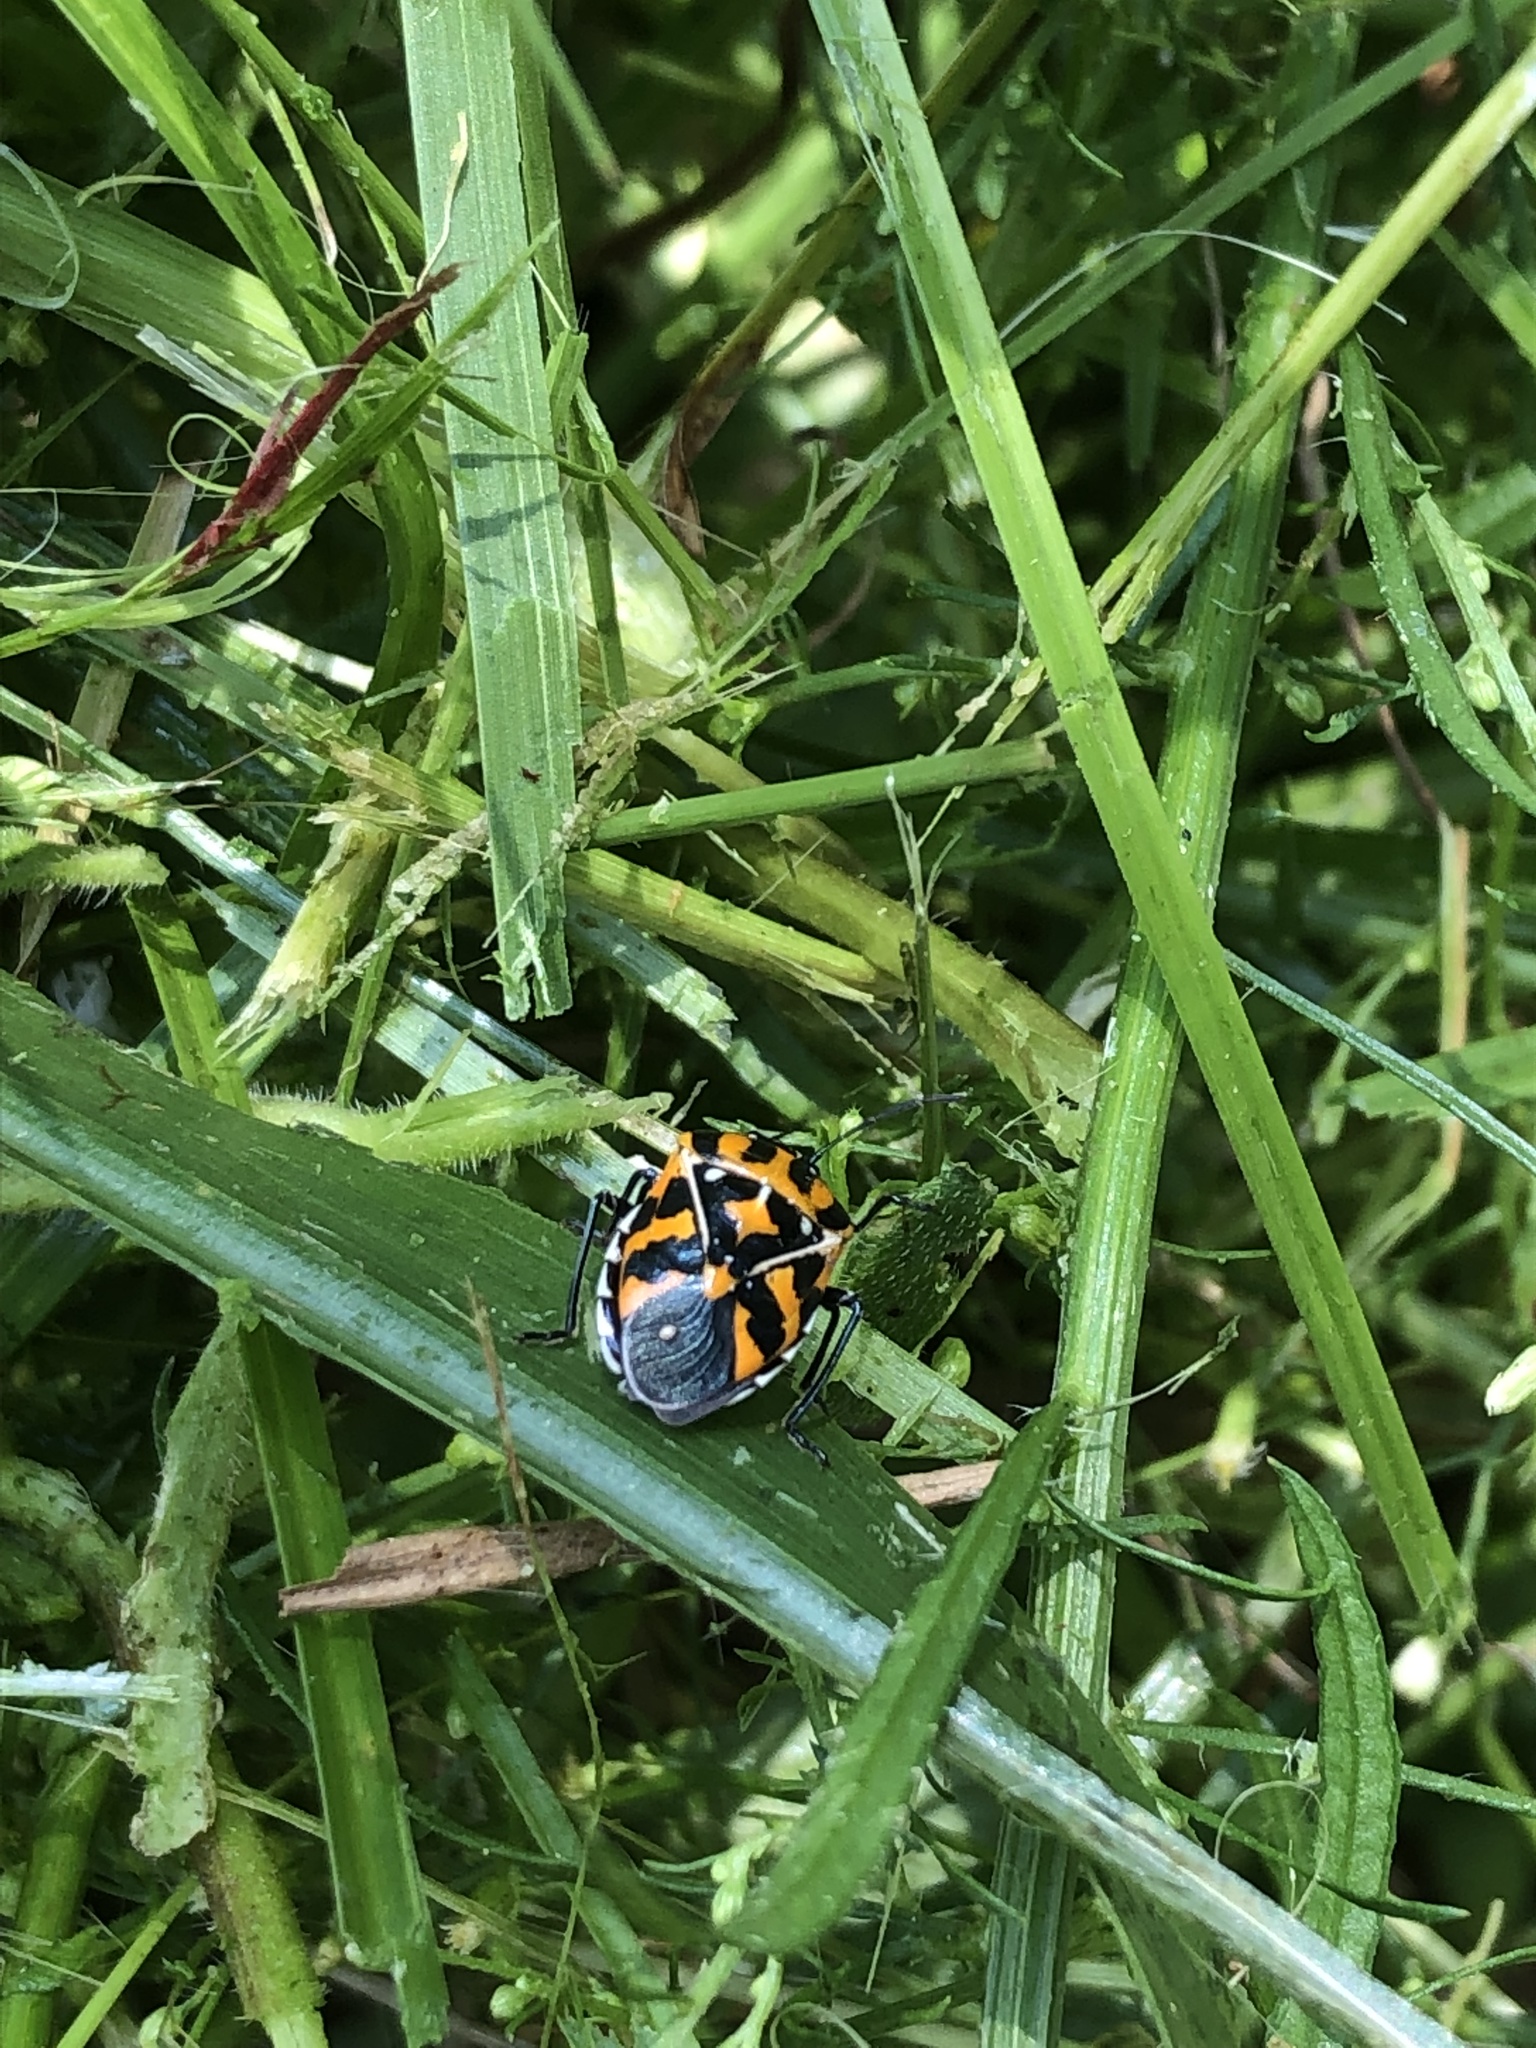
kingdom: Animalia
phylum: Arthropoda
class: Insecta
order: Hemiptera
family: Pentatomidae
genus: Murgantia
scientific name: Murgantia histrionica
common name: Harlequin bug
